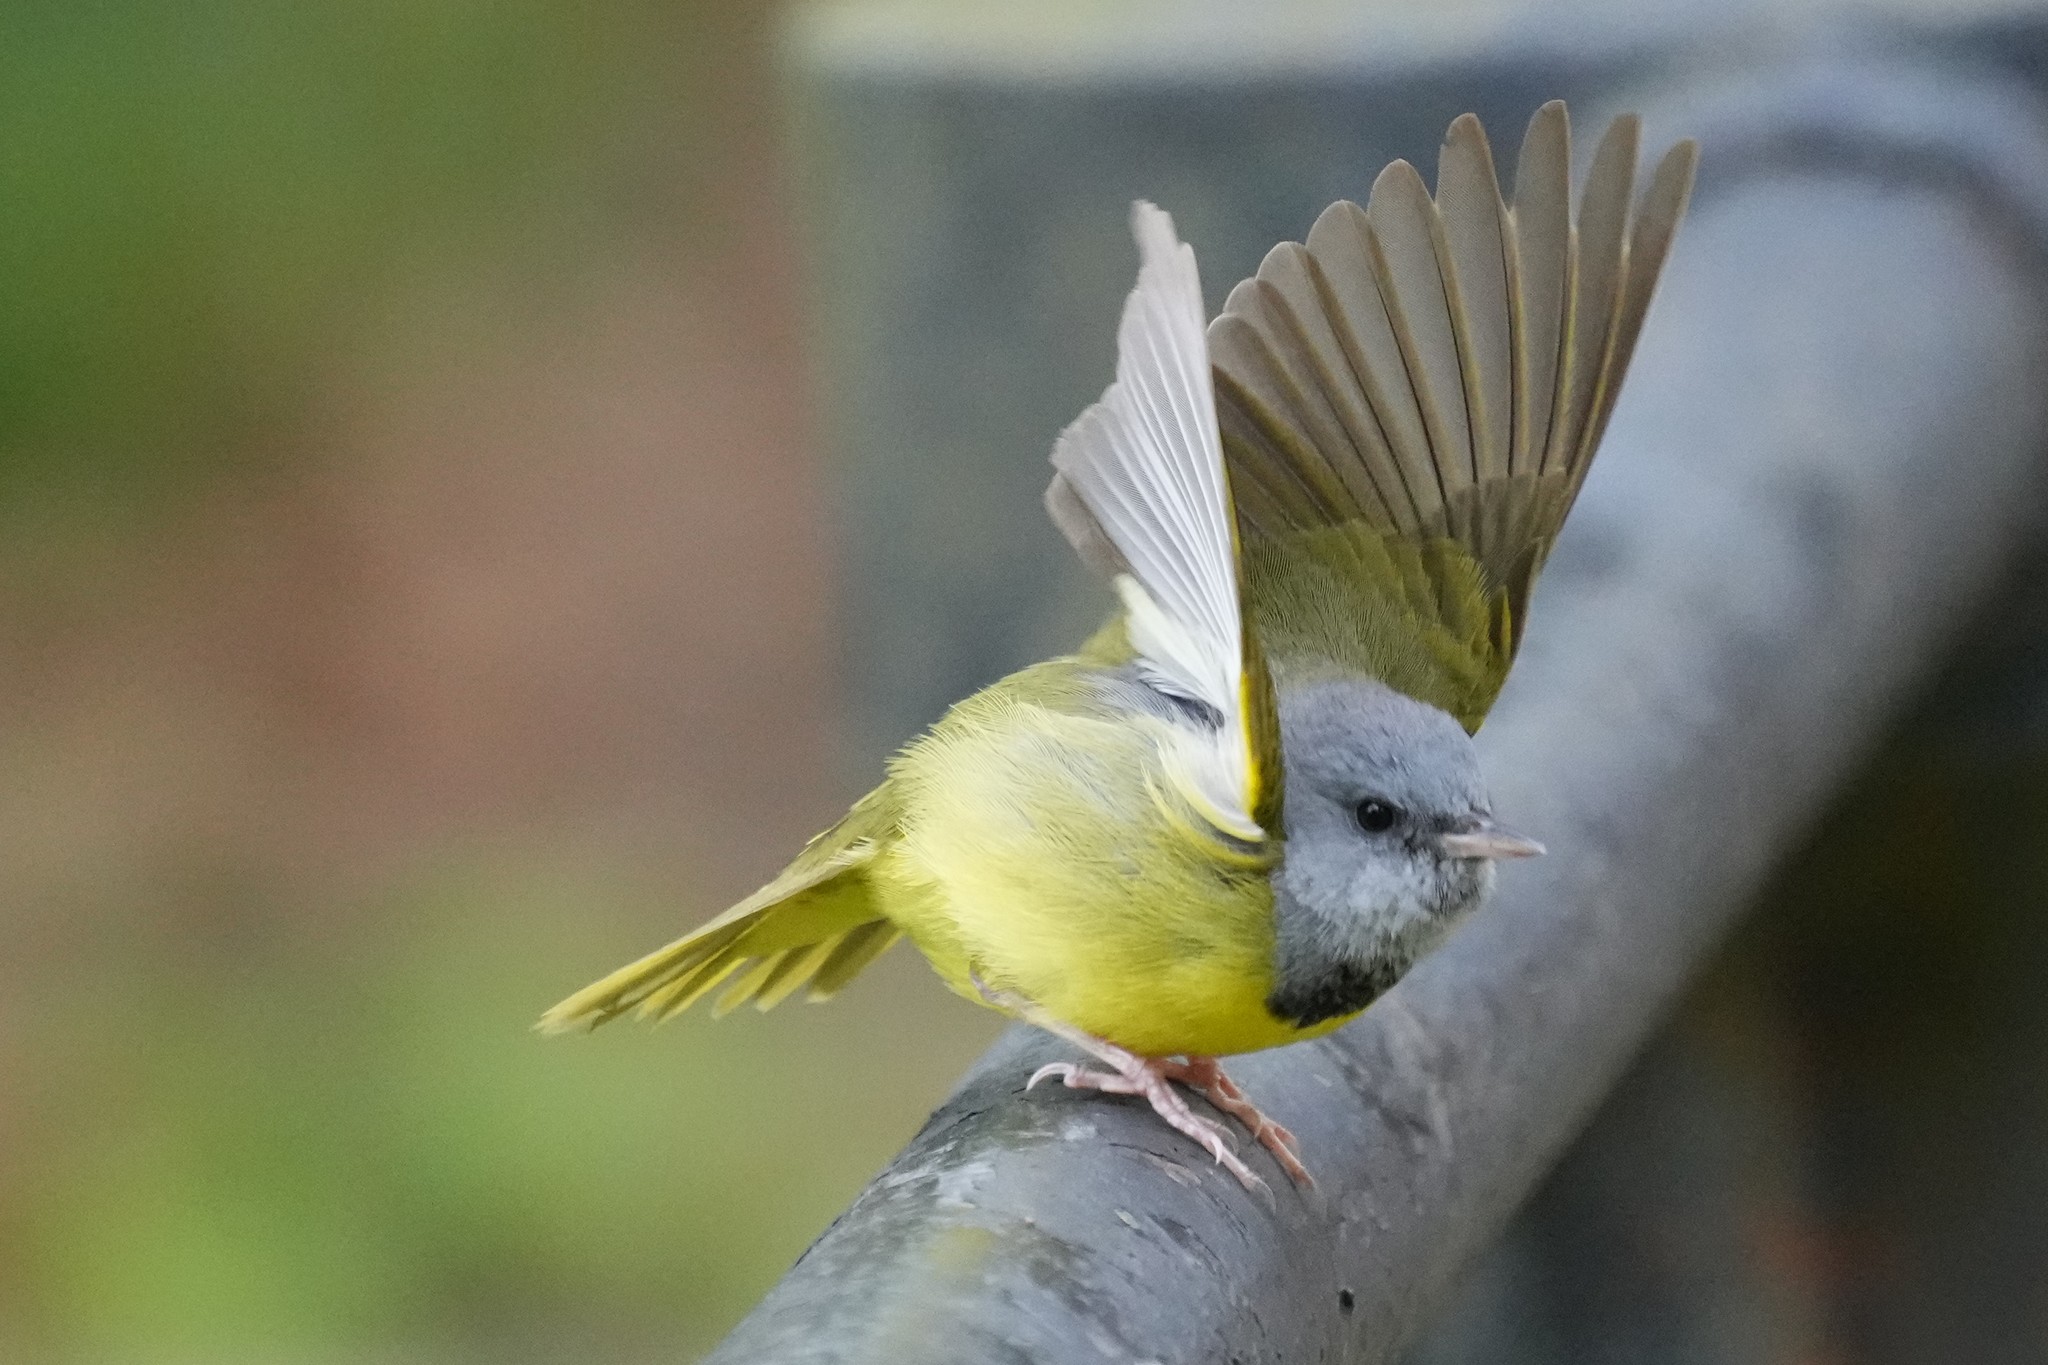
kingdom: Animalia
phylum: Chordata
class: Aves
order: Passeriformes
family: Parulidae
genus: Geothlypis
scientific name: Geothlypis philadelphia
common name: Mourning warbler
